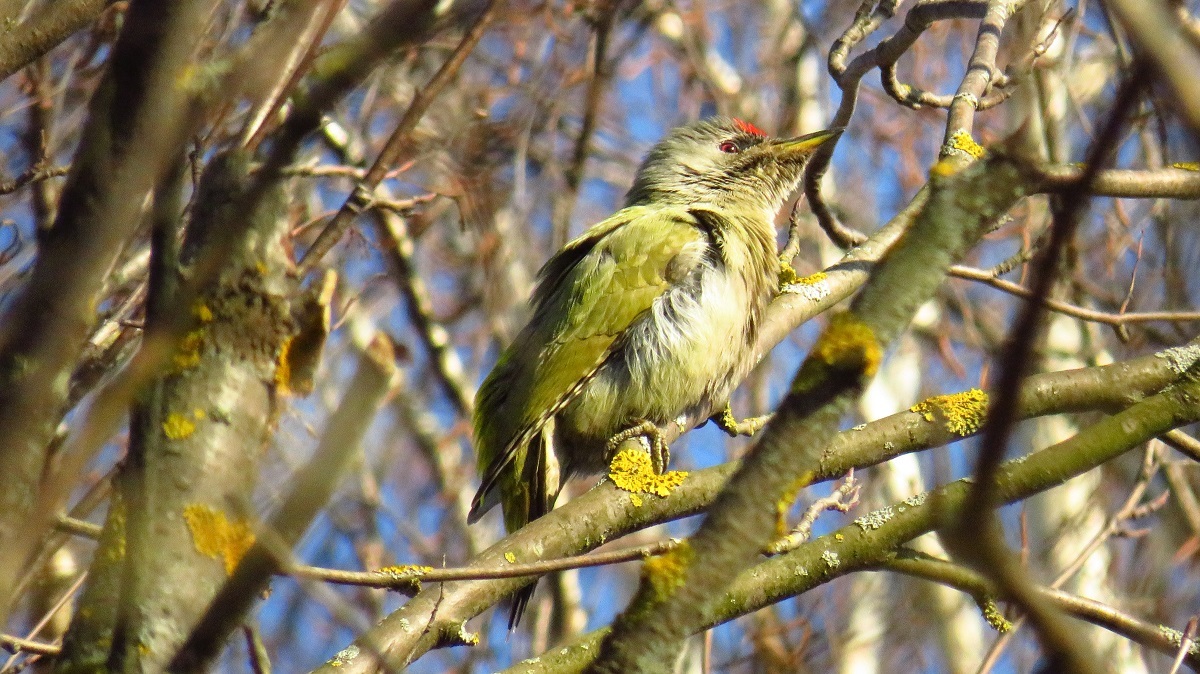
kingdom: Animalia
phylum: Chordata
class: Aves
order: Piciformes
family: Picidae
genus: Picus
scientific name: Picus canus
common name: Grey-headed woodpecker
